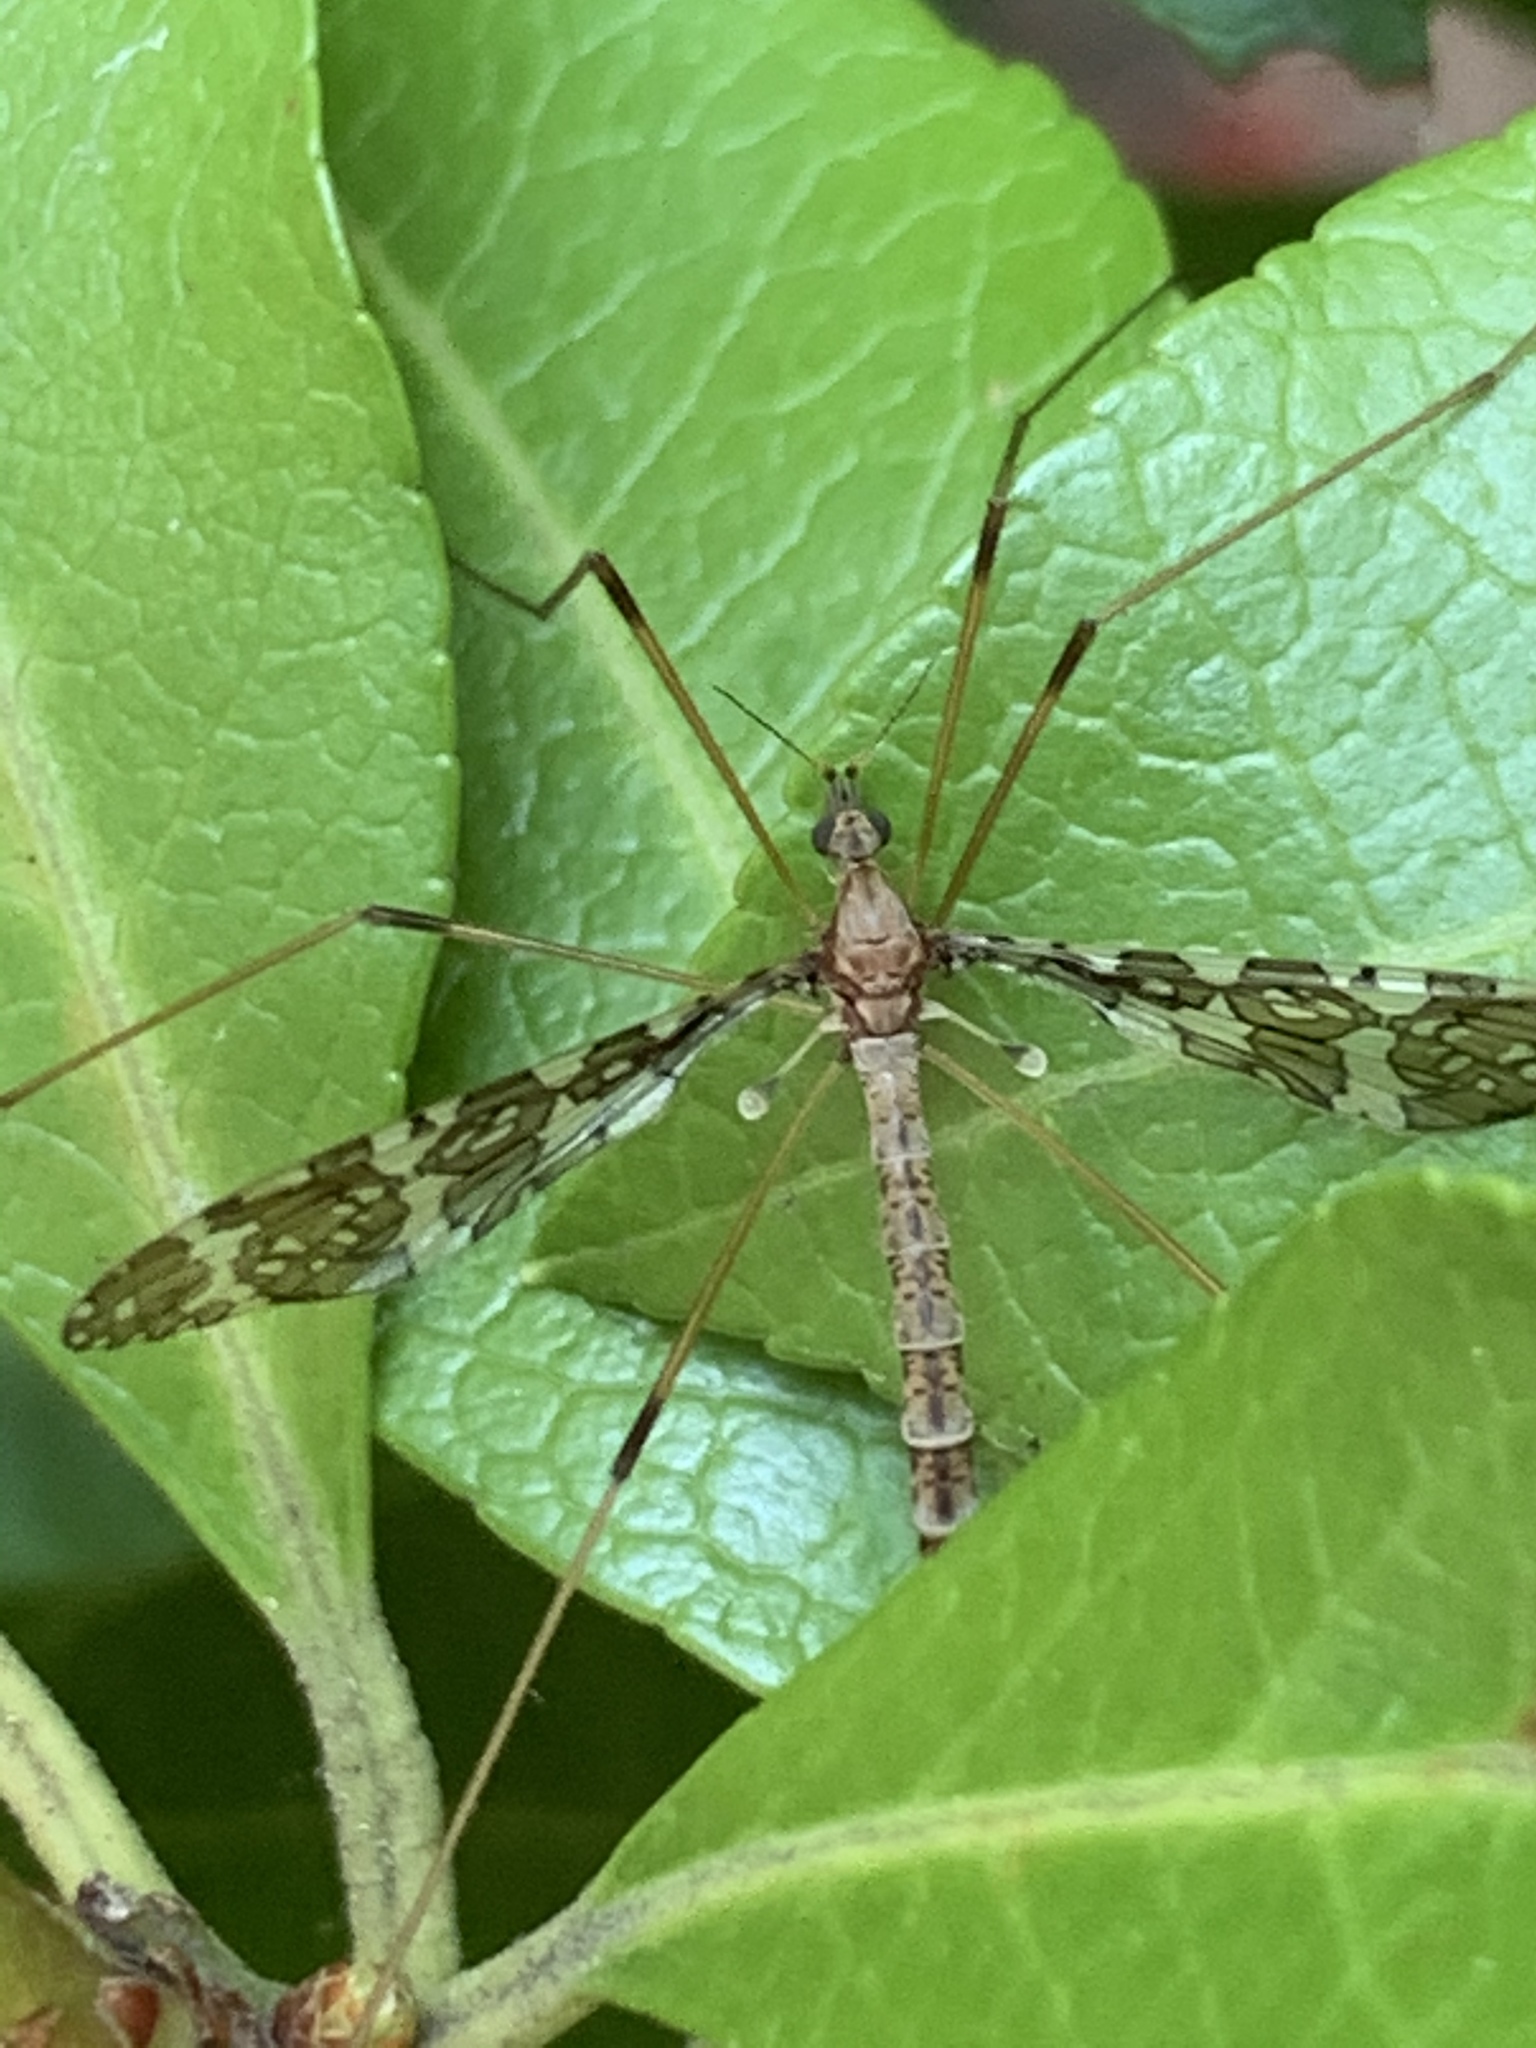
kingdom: Animalia
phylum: Arthropoda
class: Insecta
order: Diptera
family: Limoniidae
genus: Epiphragma
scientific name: Epiphragma fasciapenne
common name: Band-winged crane fly
